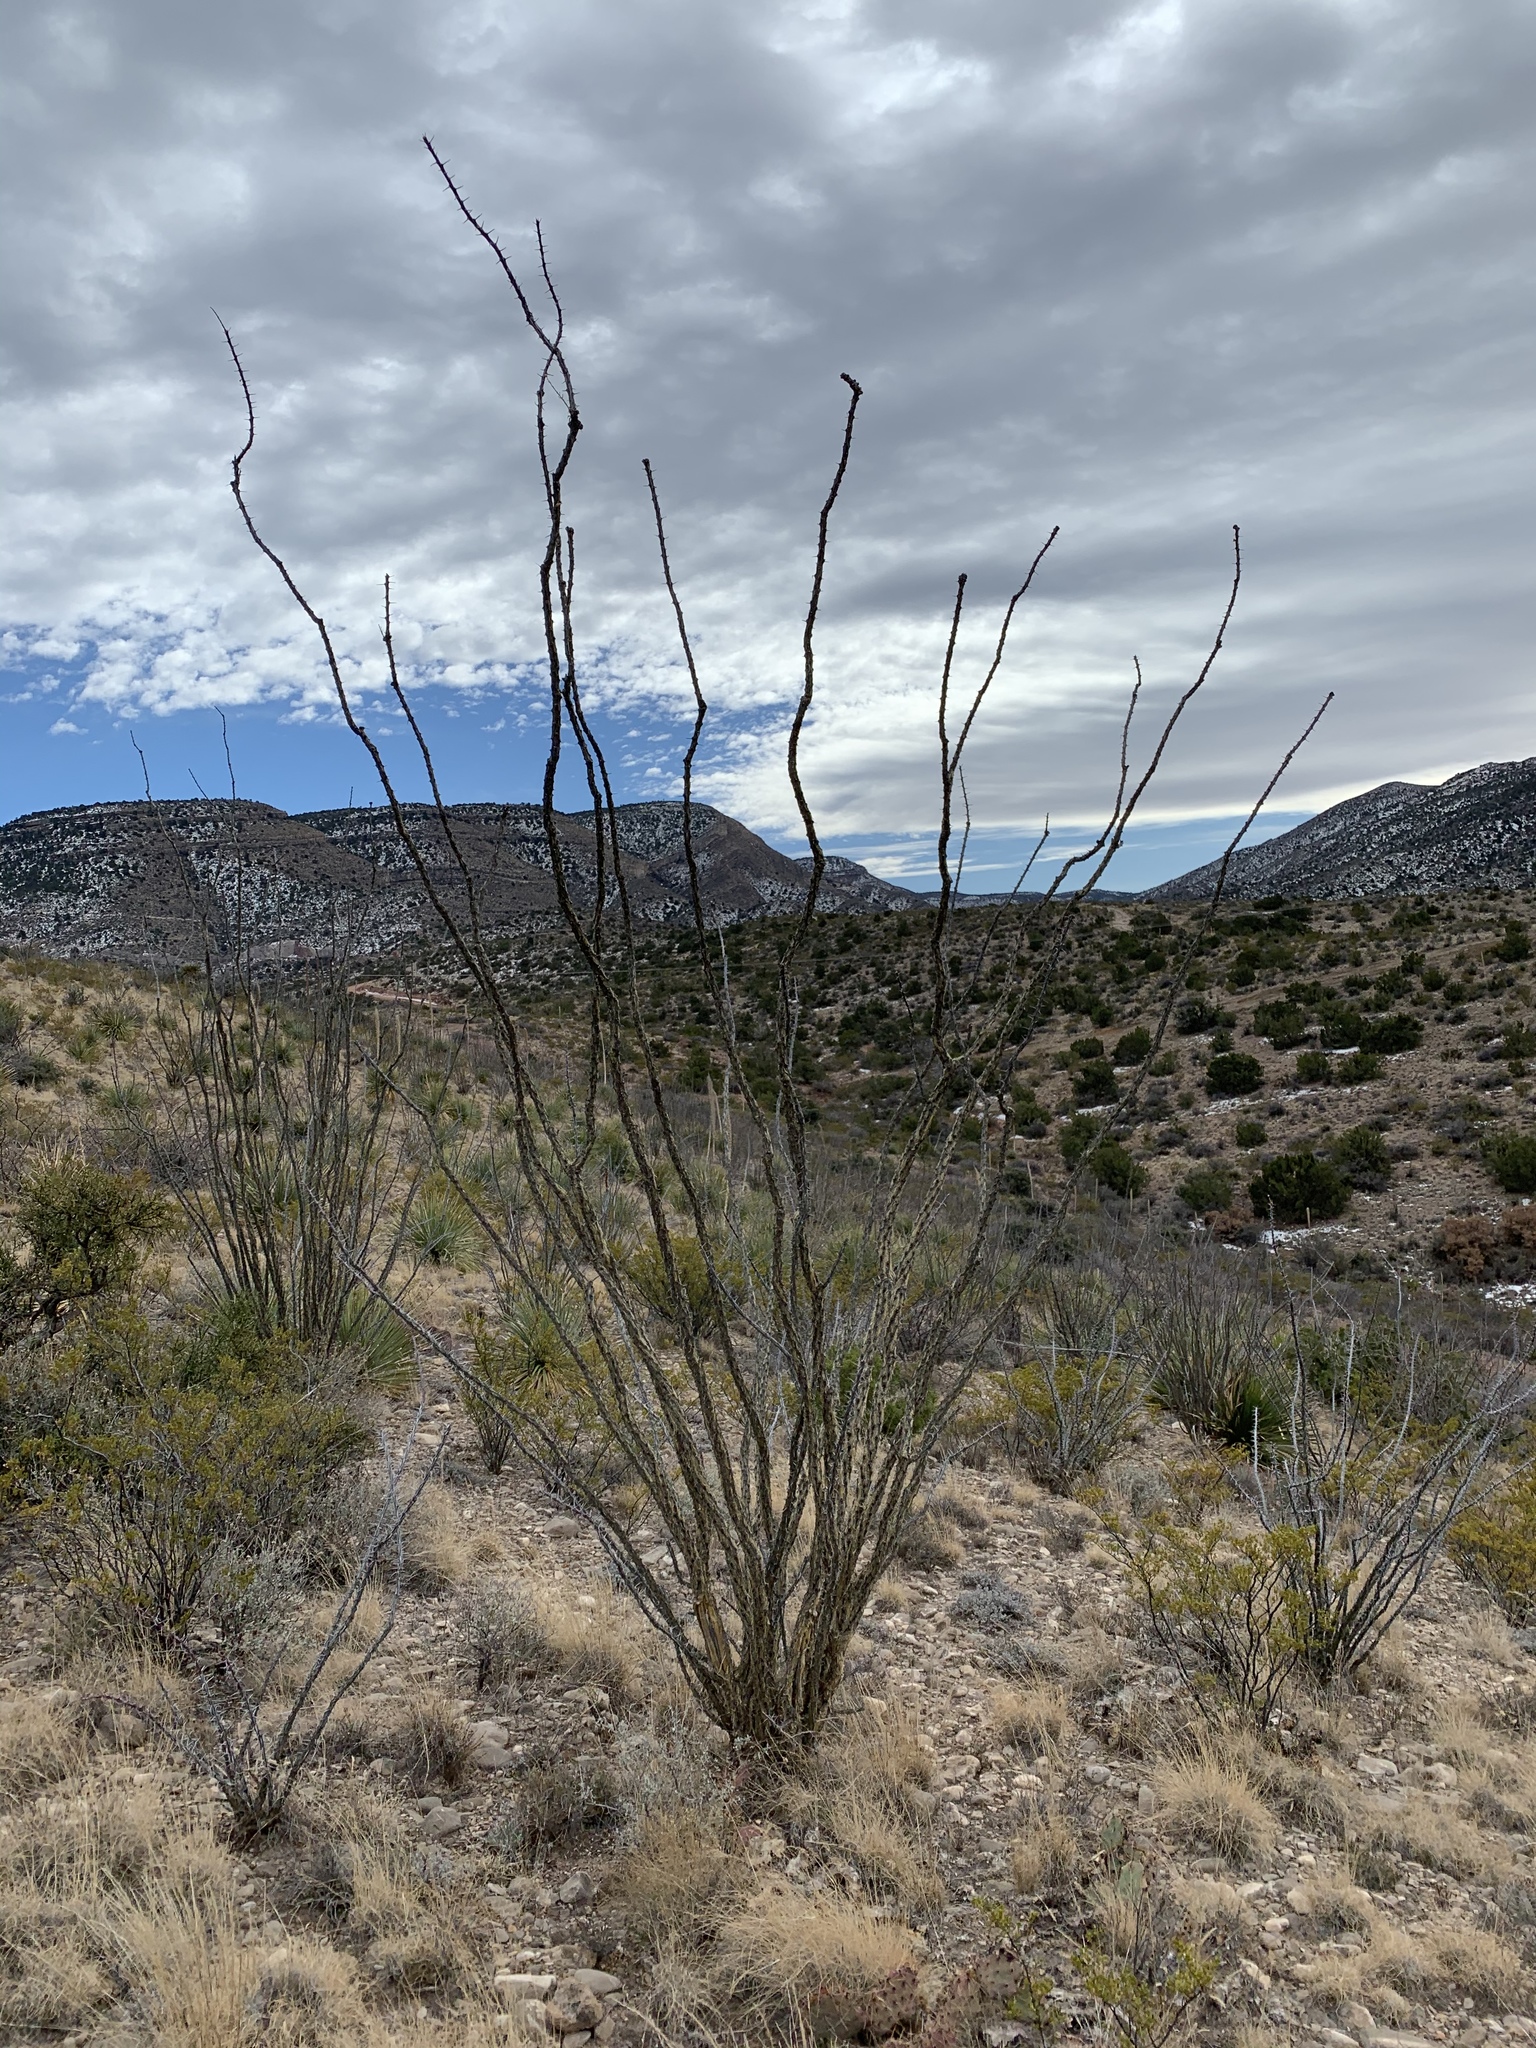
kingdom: Plantae
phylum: Tracheophyta
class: Magnoliopsida
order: Ericales
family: Fouquieriaceae
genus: Fouquieria
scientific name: Fouquieria splendens
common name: Vine-cactus
